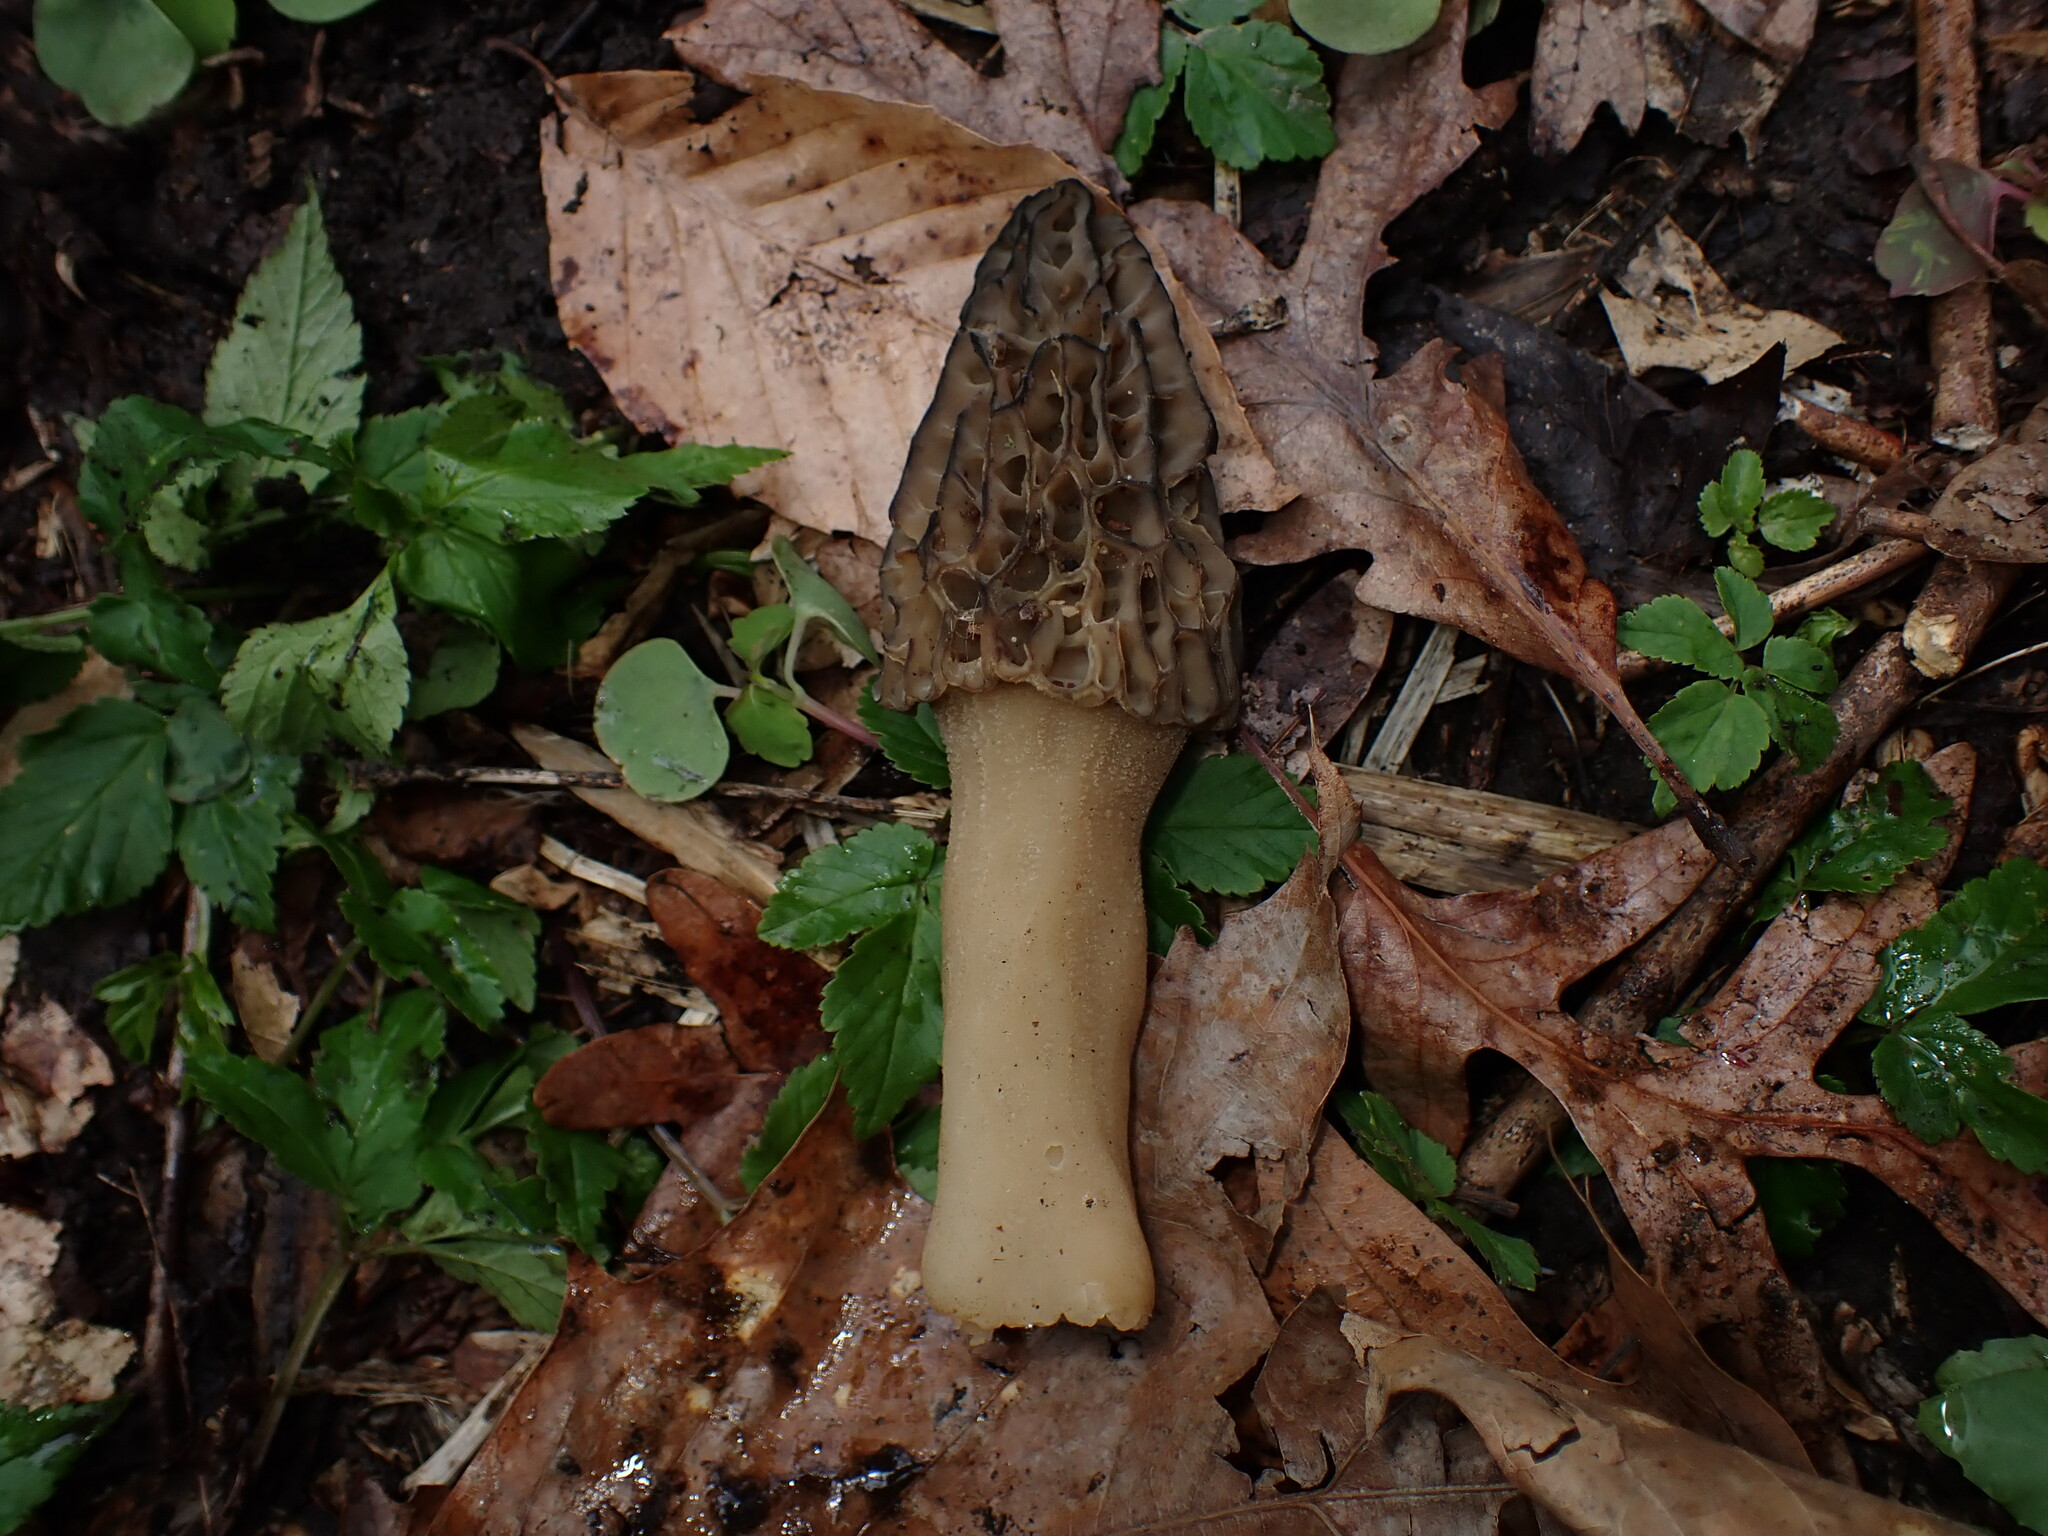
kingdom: Fungi
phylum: Ascomycota
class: Pezizomycetes
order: Pezizales
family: Morchellaceae
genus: Morchella
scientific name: Morchella angusticeps
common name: Black morel
